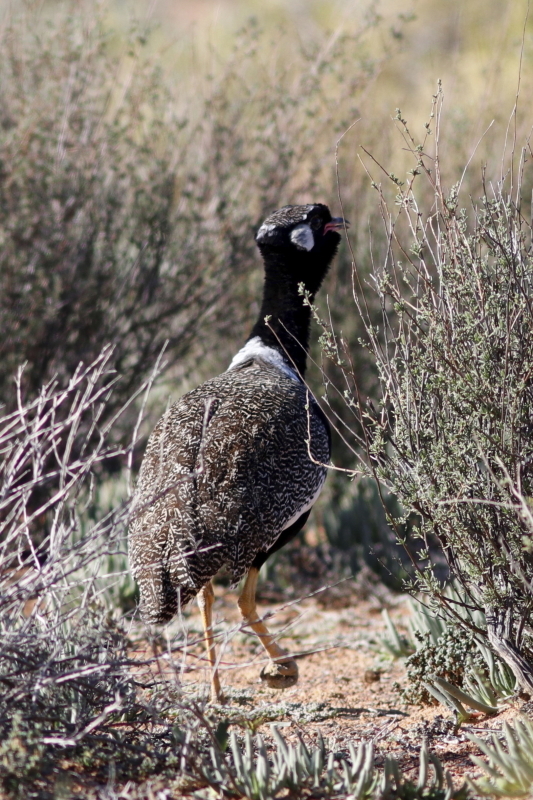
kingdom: Animalia
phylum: Chordata
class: Aves
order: Otidiformes
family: Otididae
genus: Afrotis
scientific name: Afrotis afra
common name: Southern black korhaan
